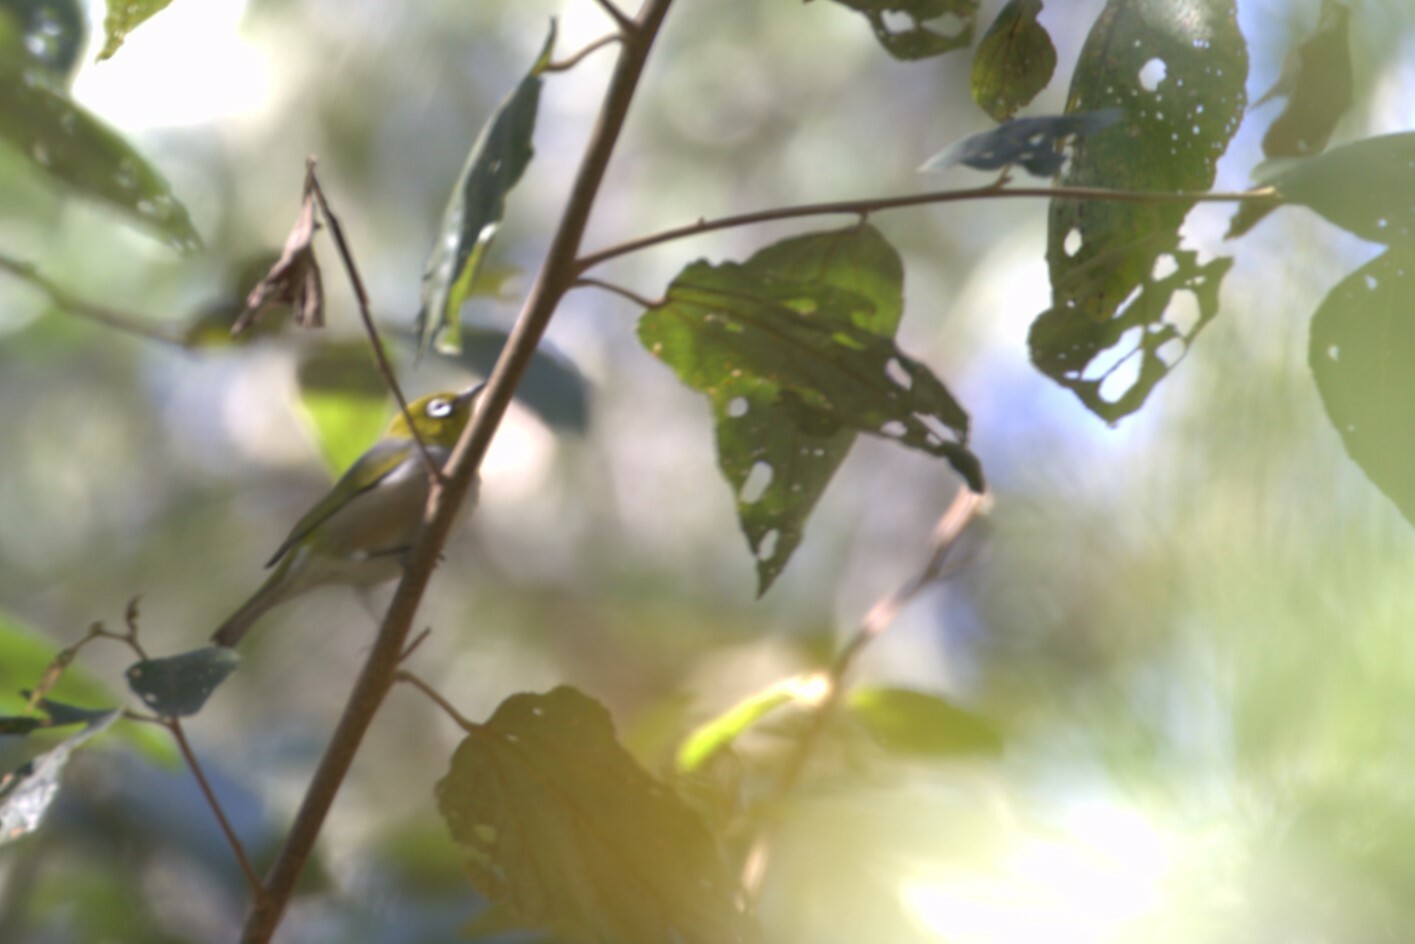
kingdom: Animalia
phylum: Chordata
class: Aves
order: Passeriformes
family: Zosteropidae
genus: Zosterops
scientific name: Zosterops lateralis
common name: Silvereye
